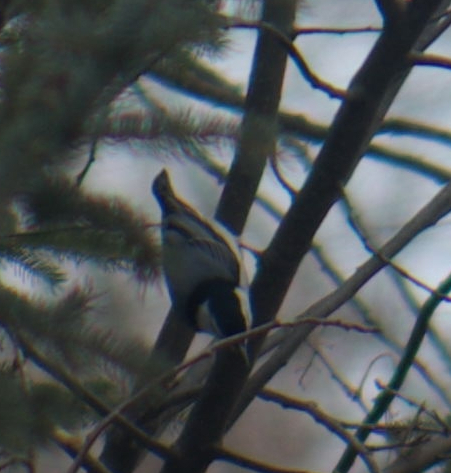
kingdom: Animalia
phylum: Chordata
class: Aves
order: Passeriformes
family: Sittidae
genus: Sitta
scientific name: Sitta carolinensis
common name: White-breasted nuthatch
